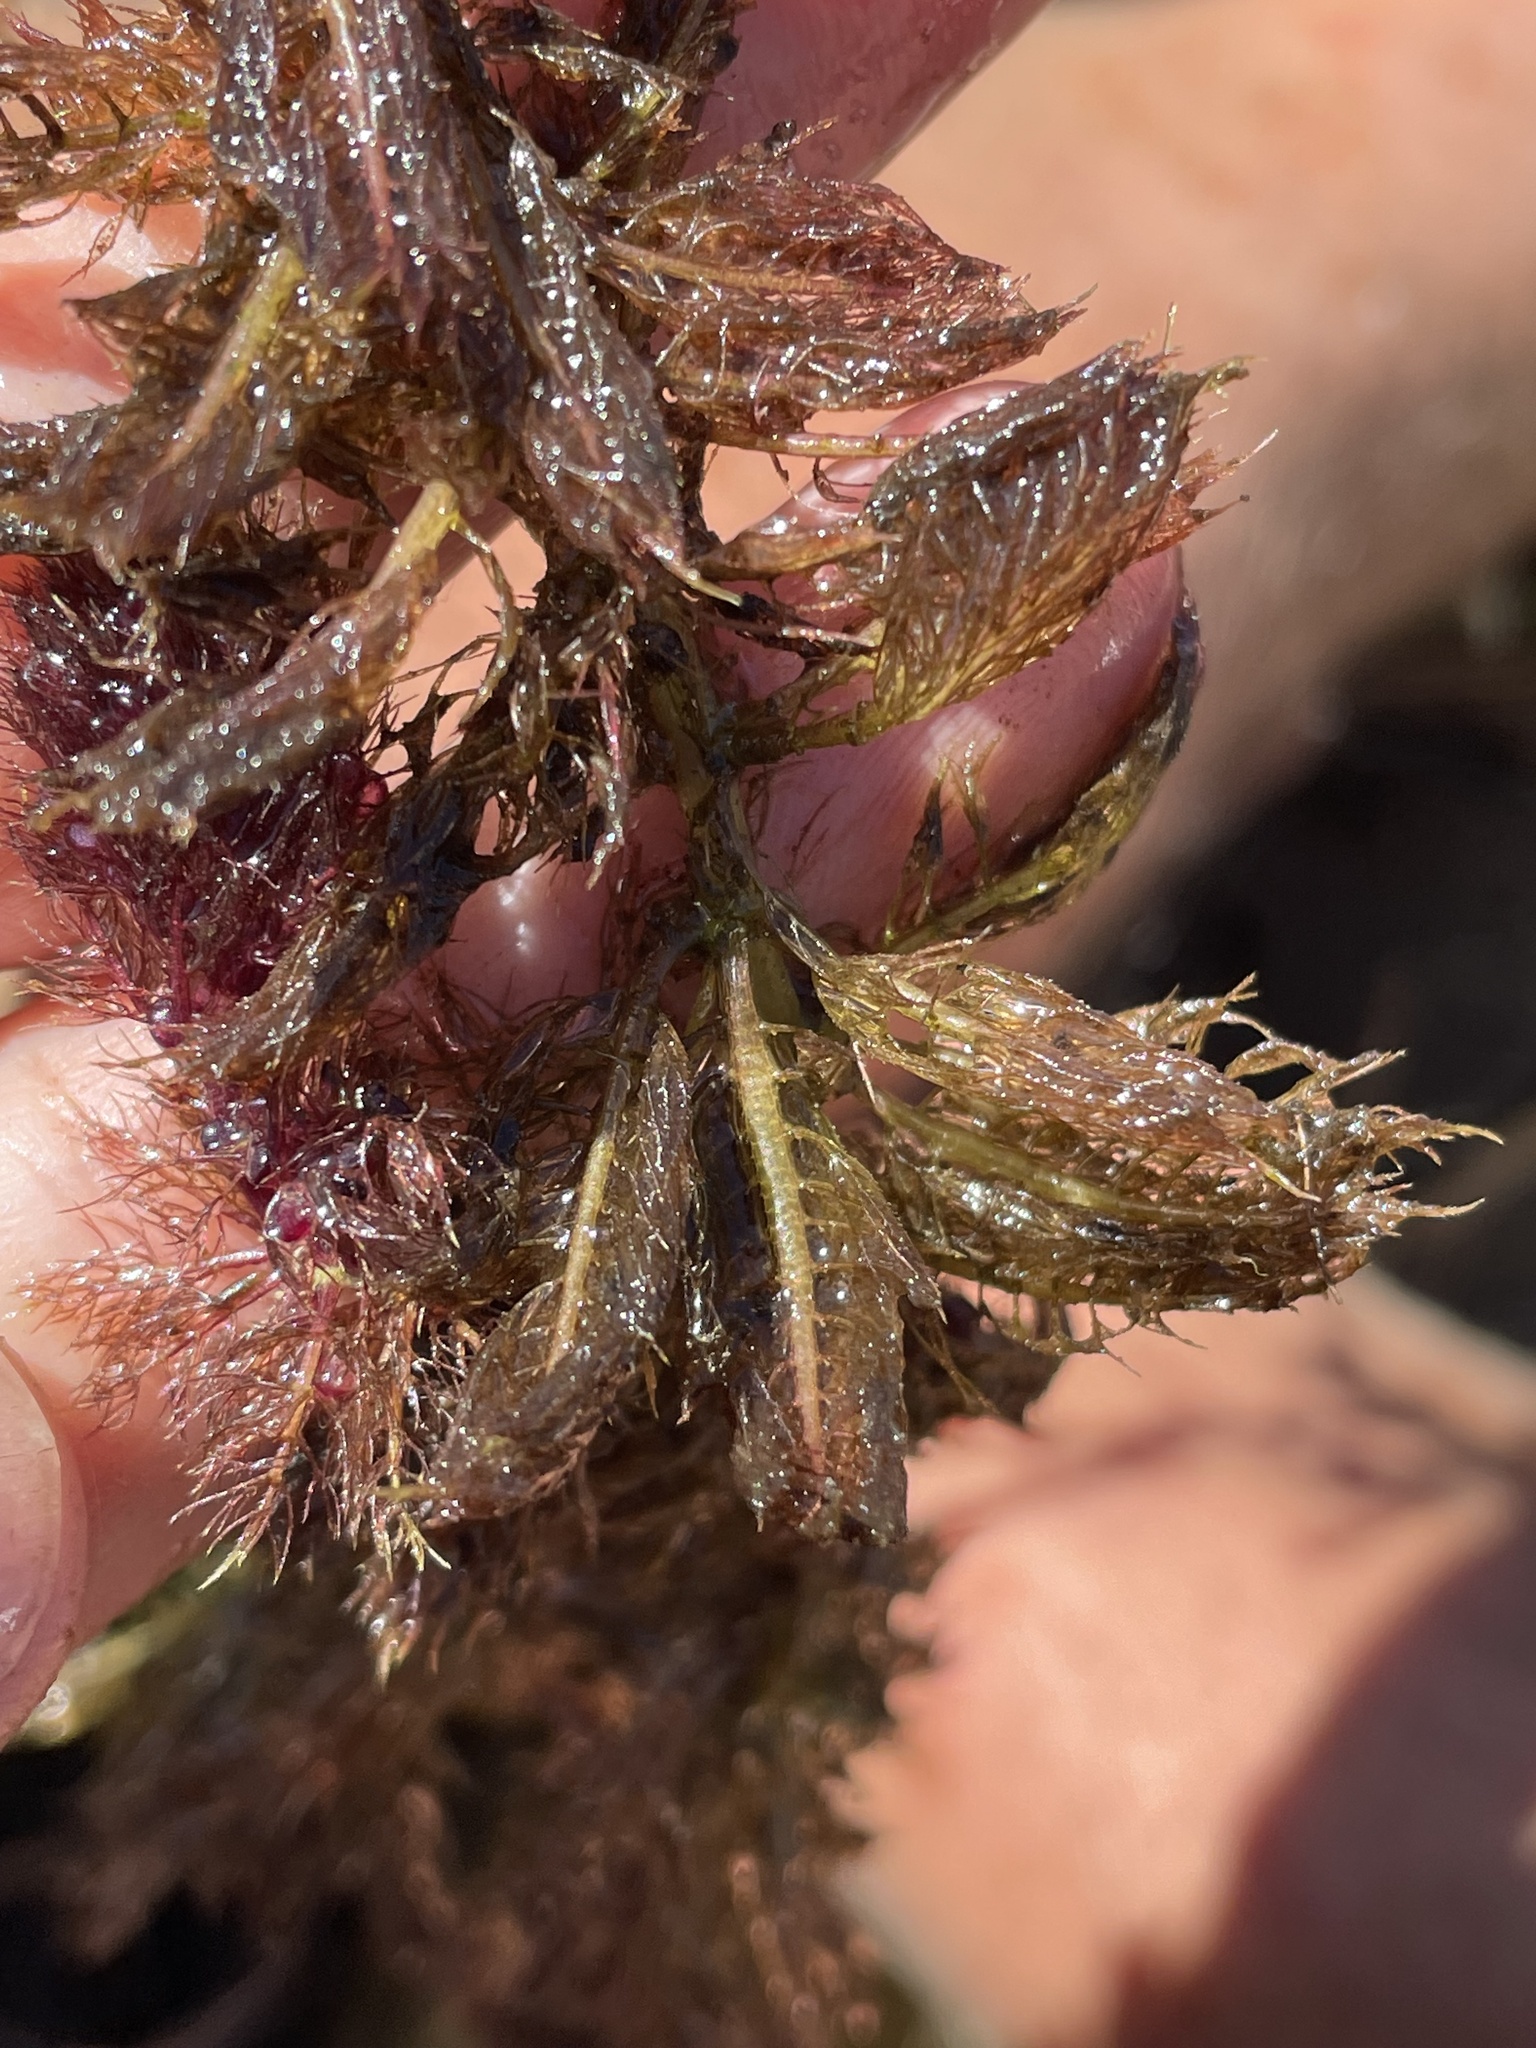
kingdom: Plantae
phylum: Tracheophyta
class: Magnoliopsida
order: Lamiales
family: Lentibulariaceae
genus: Utricularia
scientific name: Utricularia stellaris
